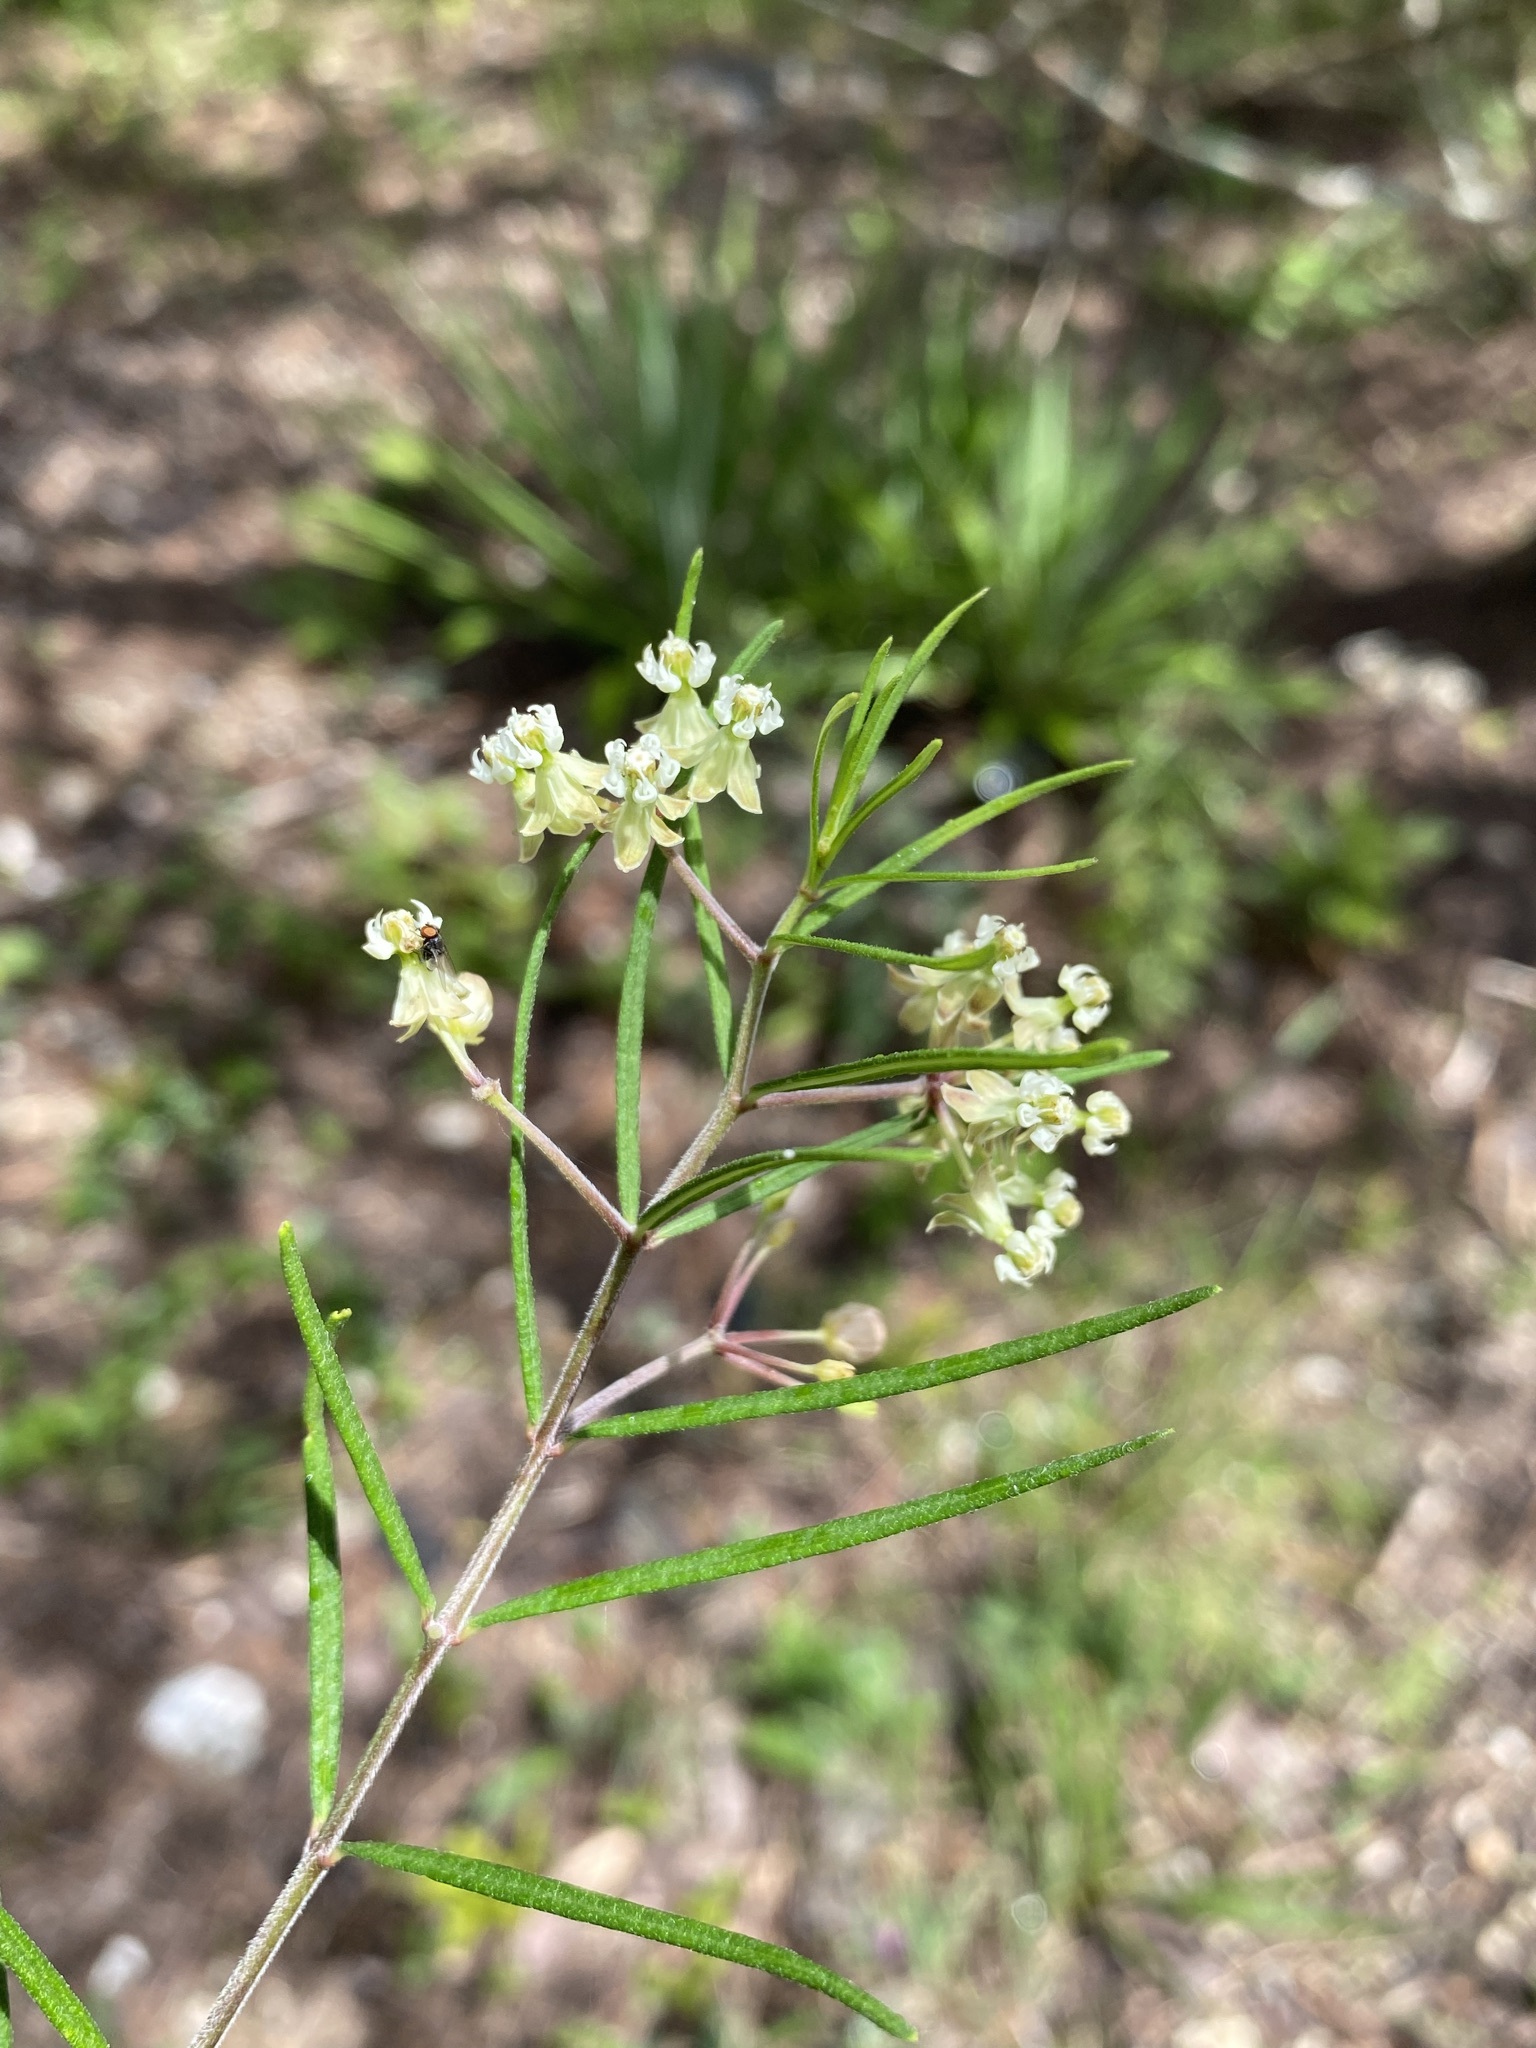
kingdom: Plantae
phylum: Tracheophyta
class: Magnoliopsida
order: Gentianales
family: Apocynaceae
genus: Asclepias
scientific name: Asclepias verticillata
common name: Eastern whorled milkweed
